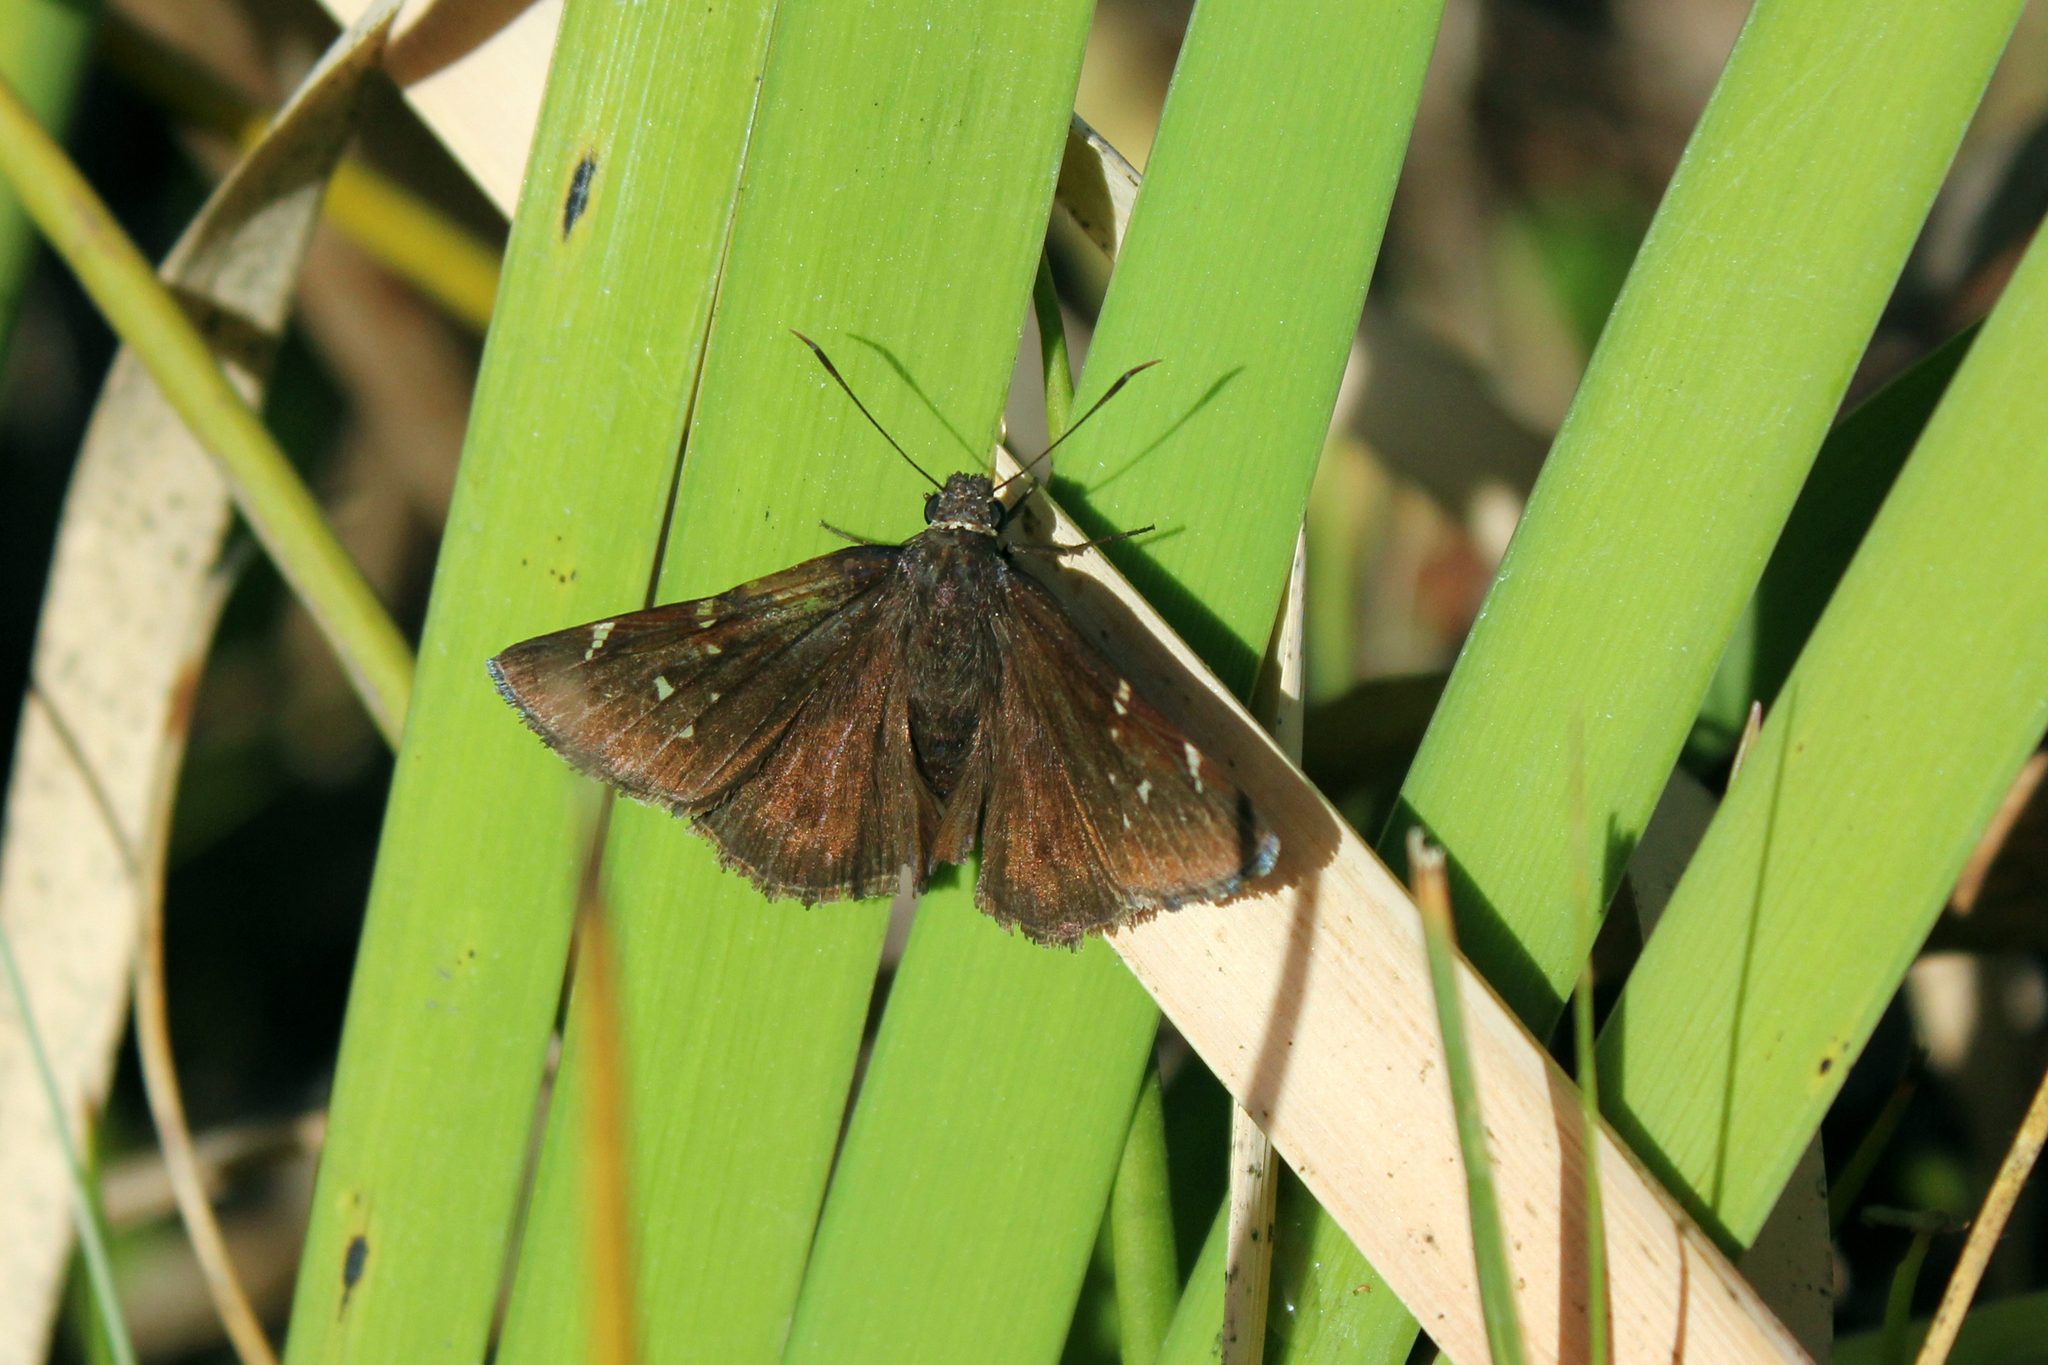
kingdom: Animalia
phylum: Arthropoda
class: Insecta
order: Lepidoptera
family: Hesperiidae
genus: Thorybes
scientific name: Thorybes pylades
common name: Northern cloudywing
